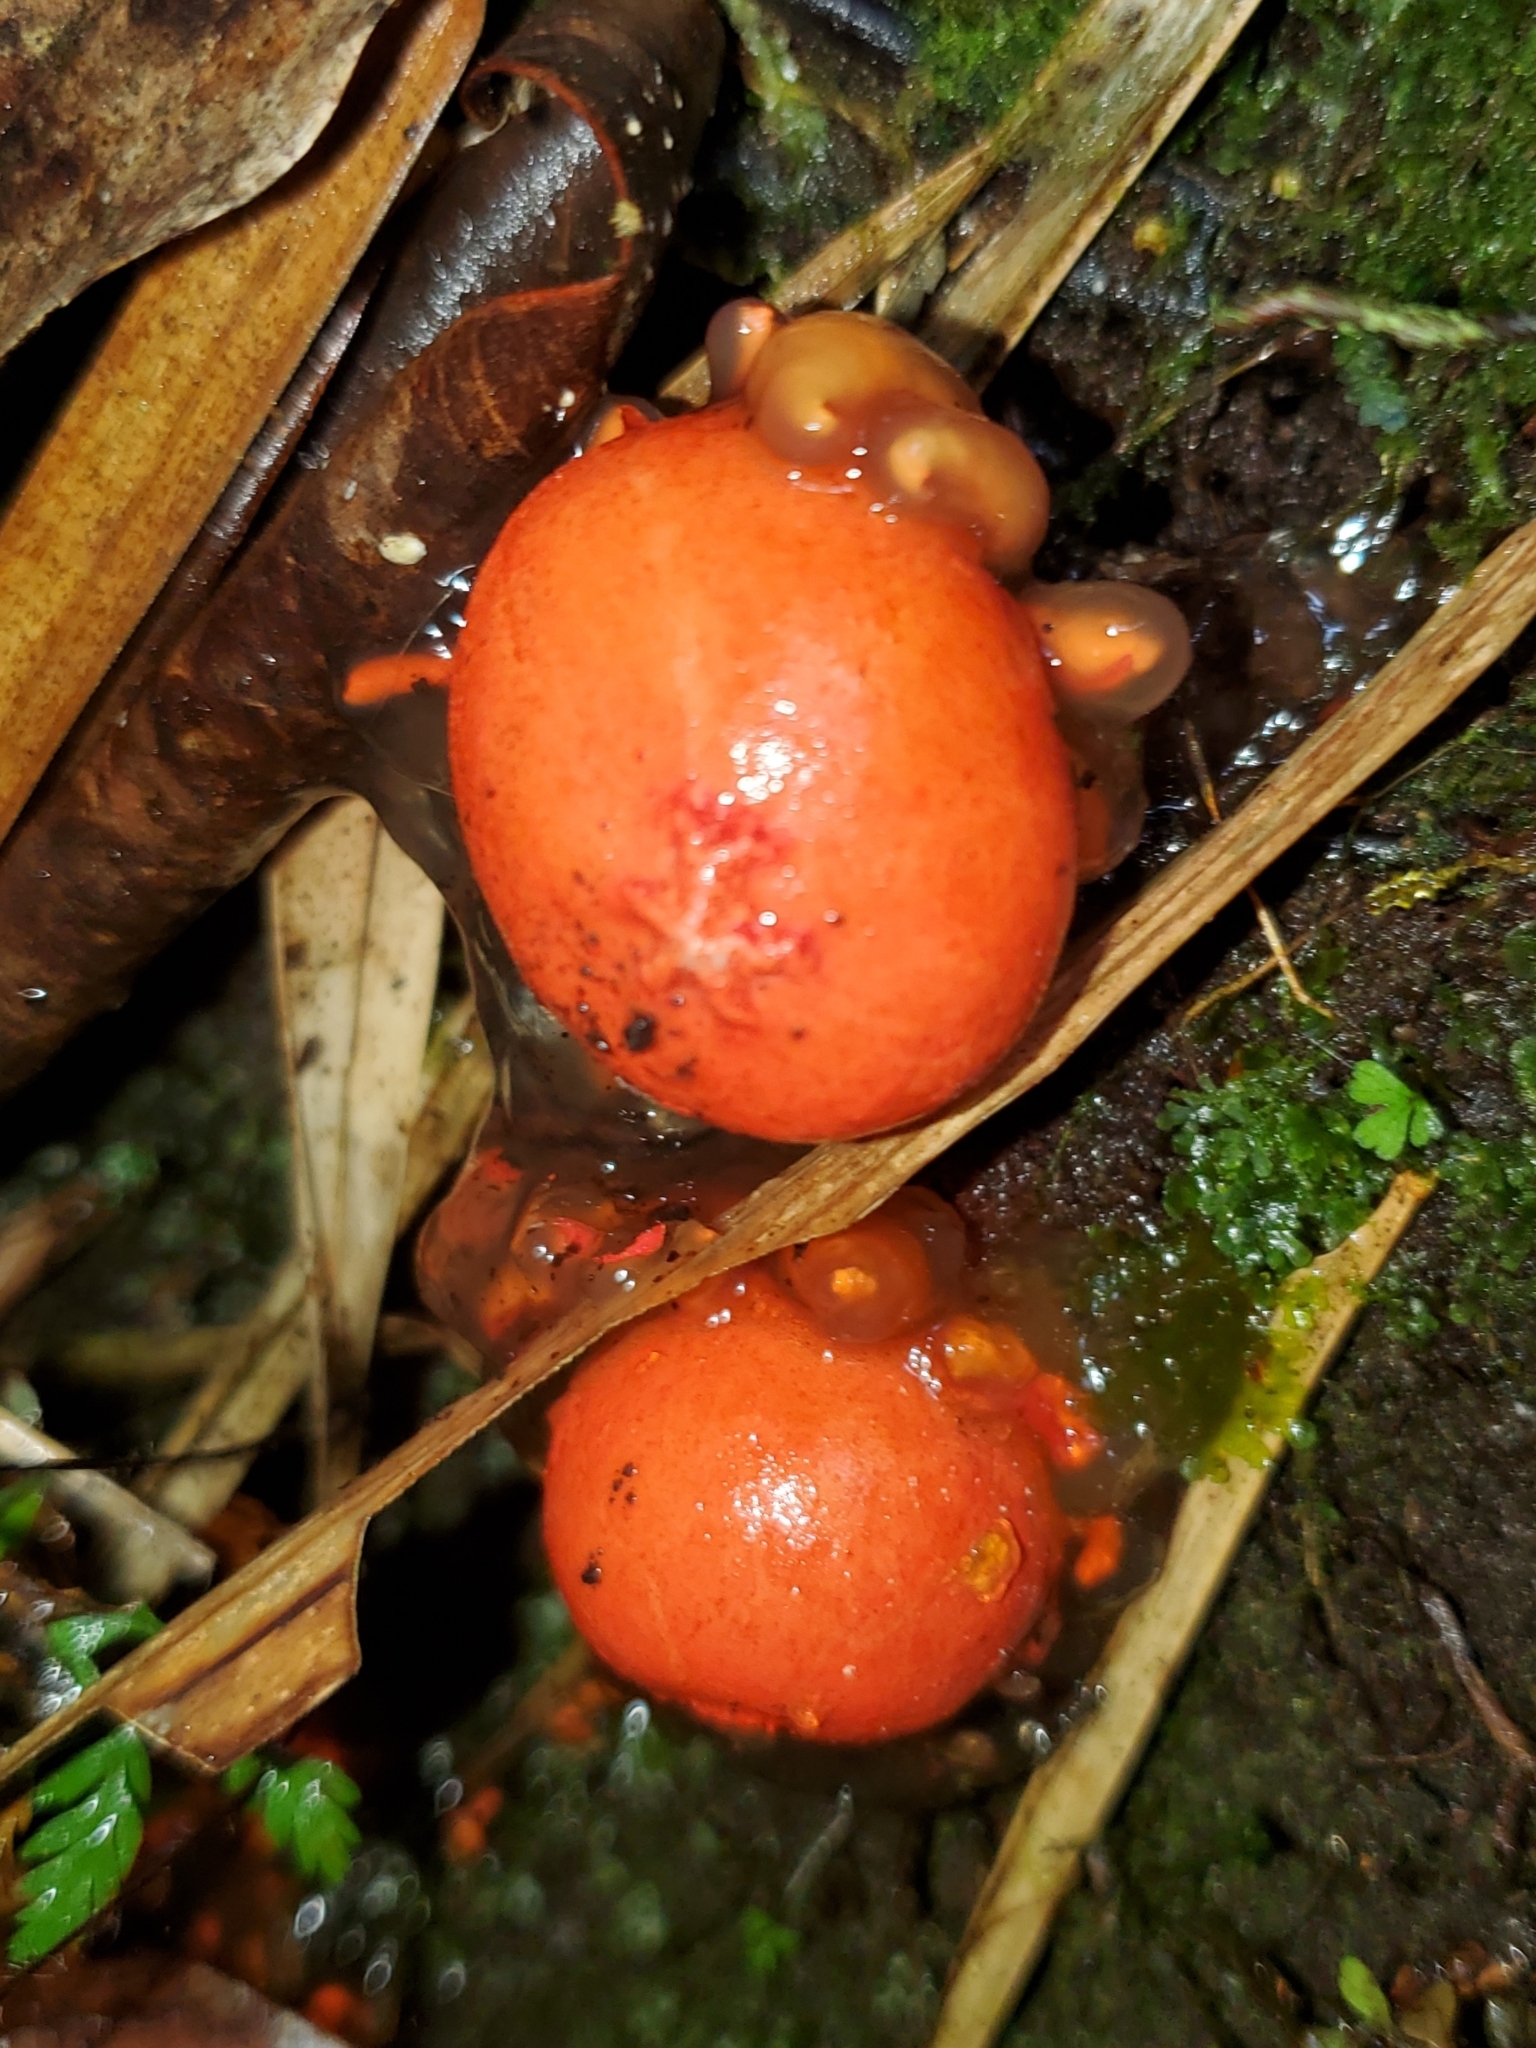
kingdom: Fungi
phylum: Basidiomycota
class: Agaricomycetes
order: Boletales
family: Calostomataceae
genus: Calostoma
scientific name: Calostoma cinnabarinum
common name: Stalked puffball-in-aspic
